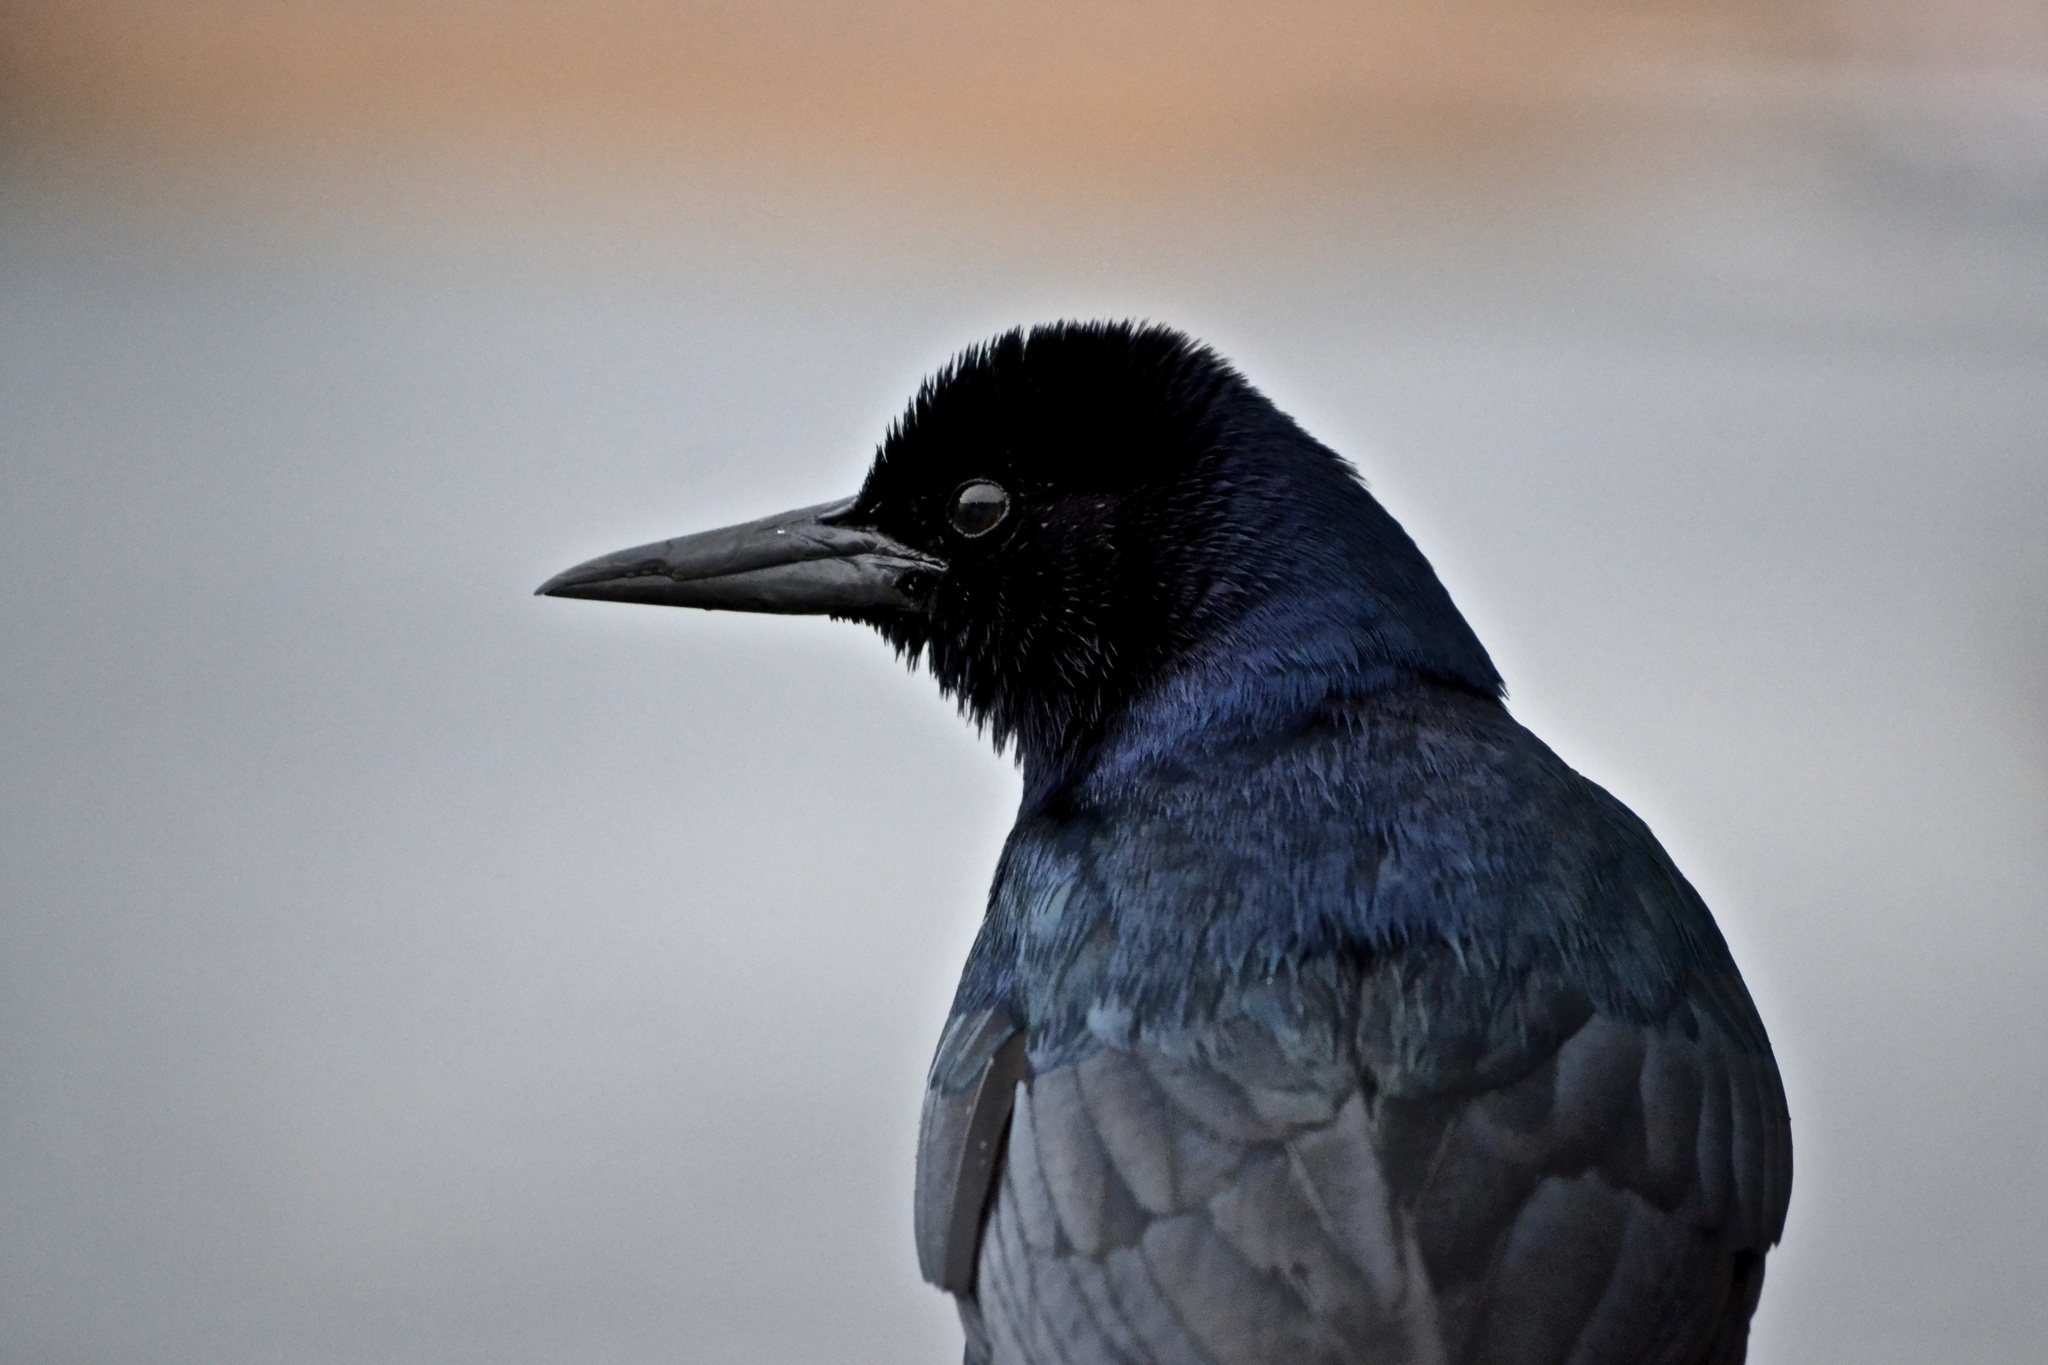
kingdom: Animalia
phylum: Chordata
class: Aves
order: Passeriformes
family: Icteridae
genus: Quiscalus
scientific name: Quiscalus major
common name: Boat-tailed grackle
